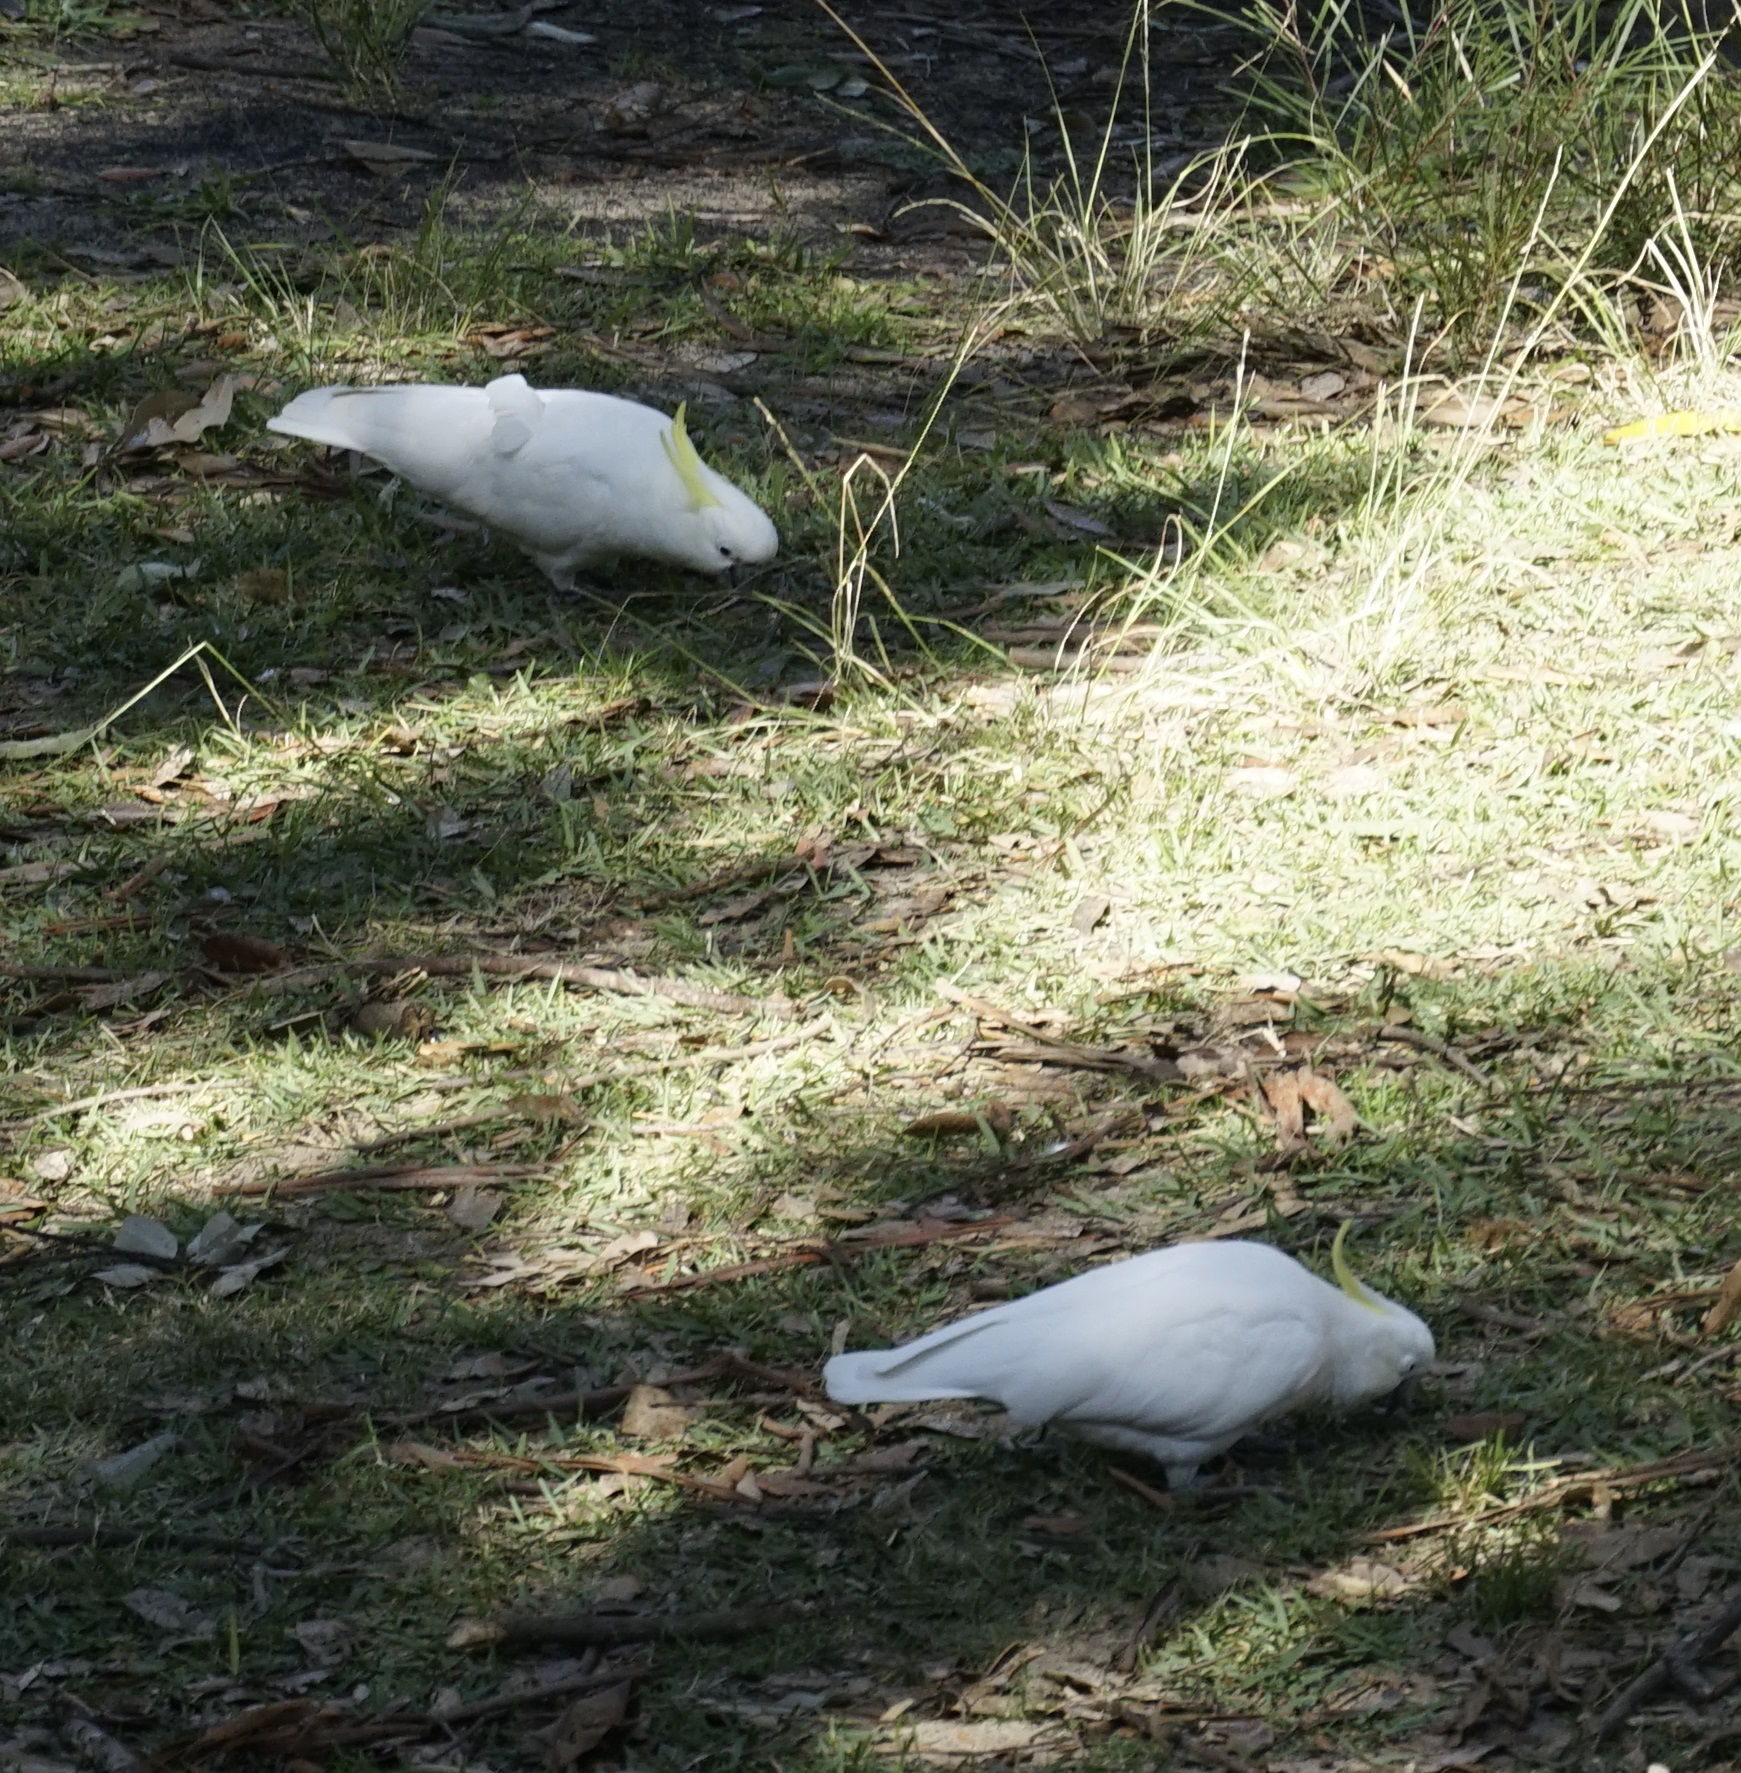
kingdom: Animalia
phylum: Chordata
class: Aves
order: Psittaciformes
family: Psittacidae
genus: Cacatua
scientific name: Cacatua galerita
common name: Sulphur-crested cockatoo
